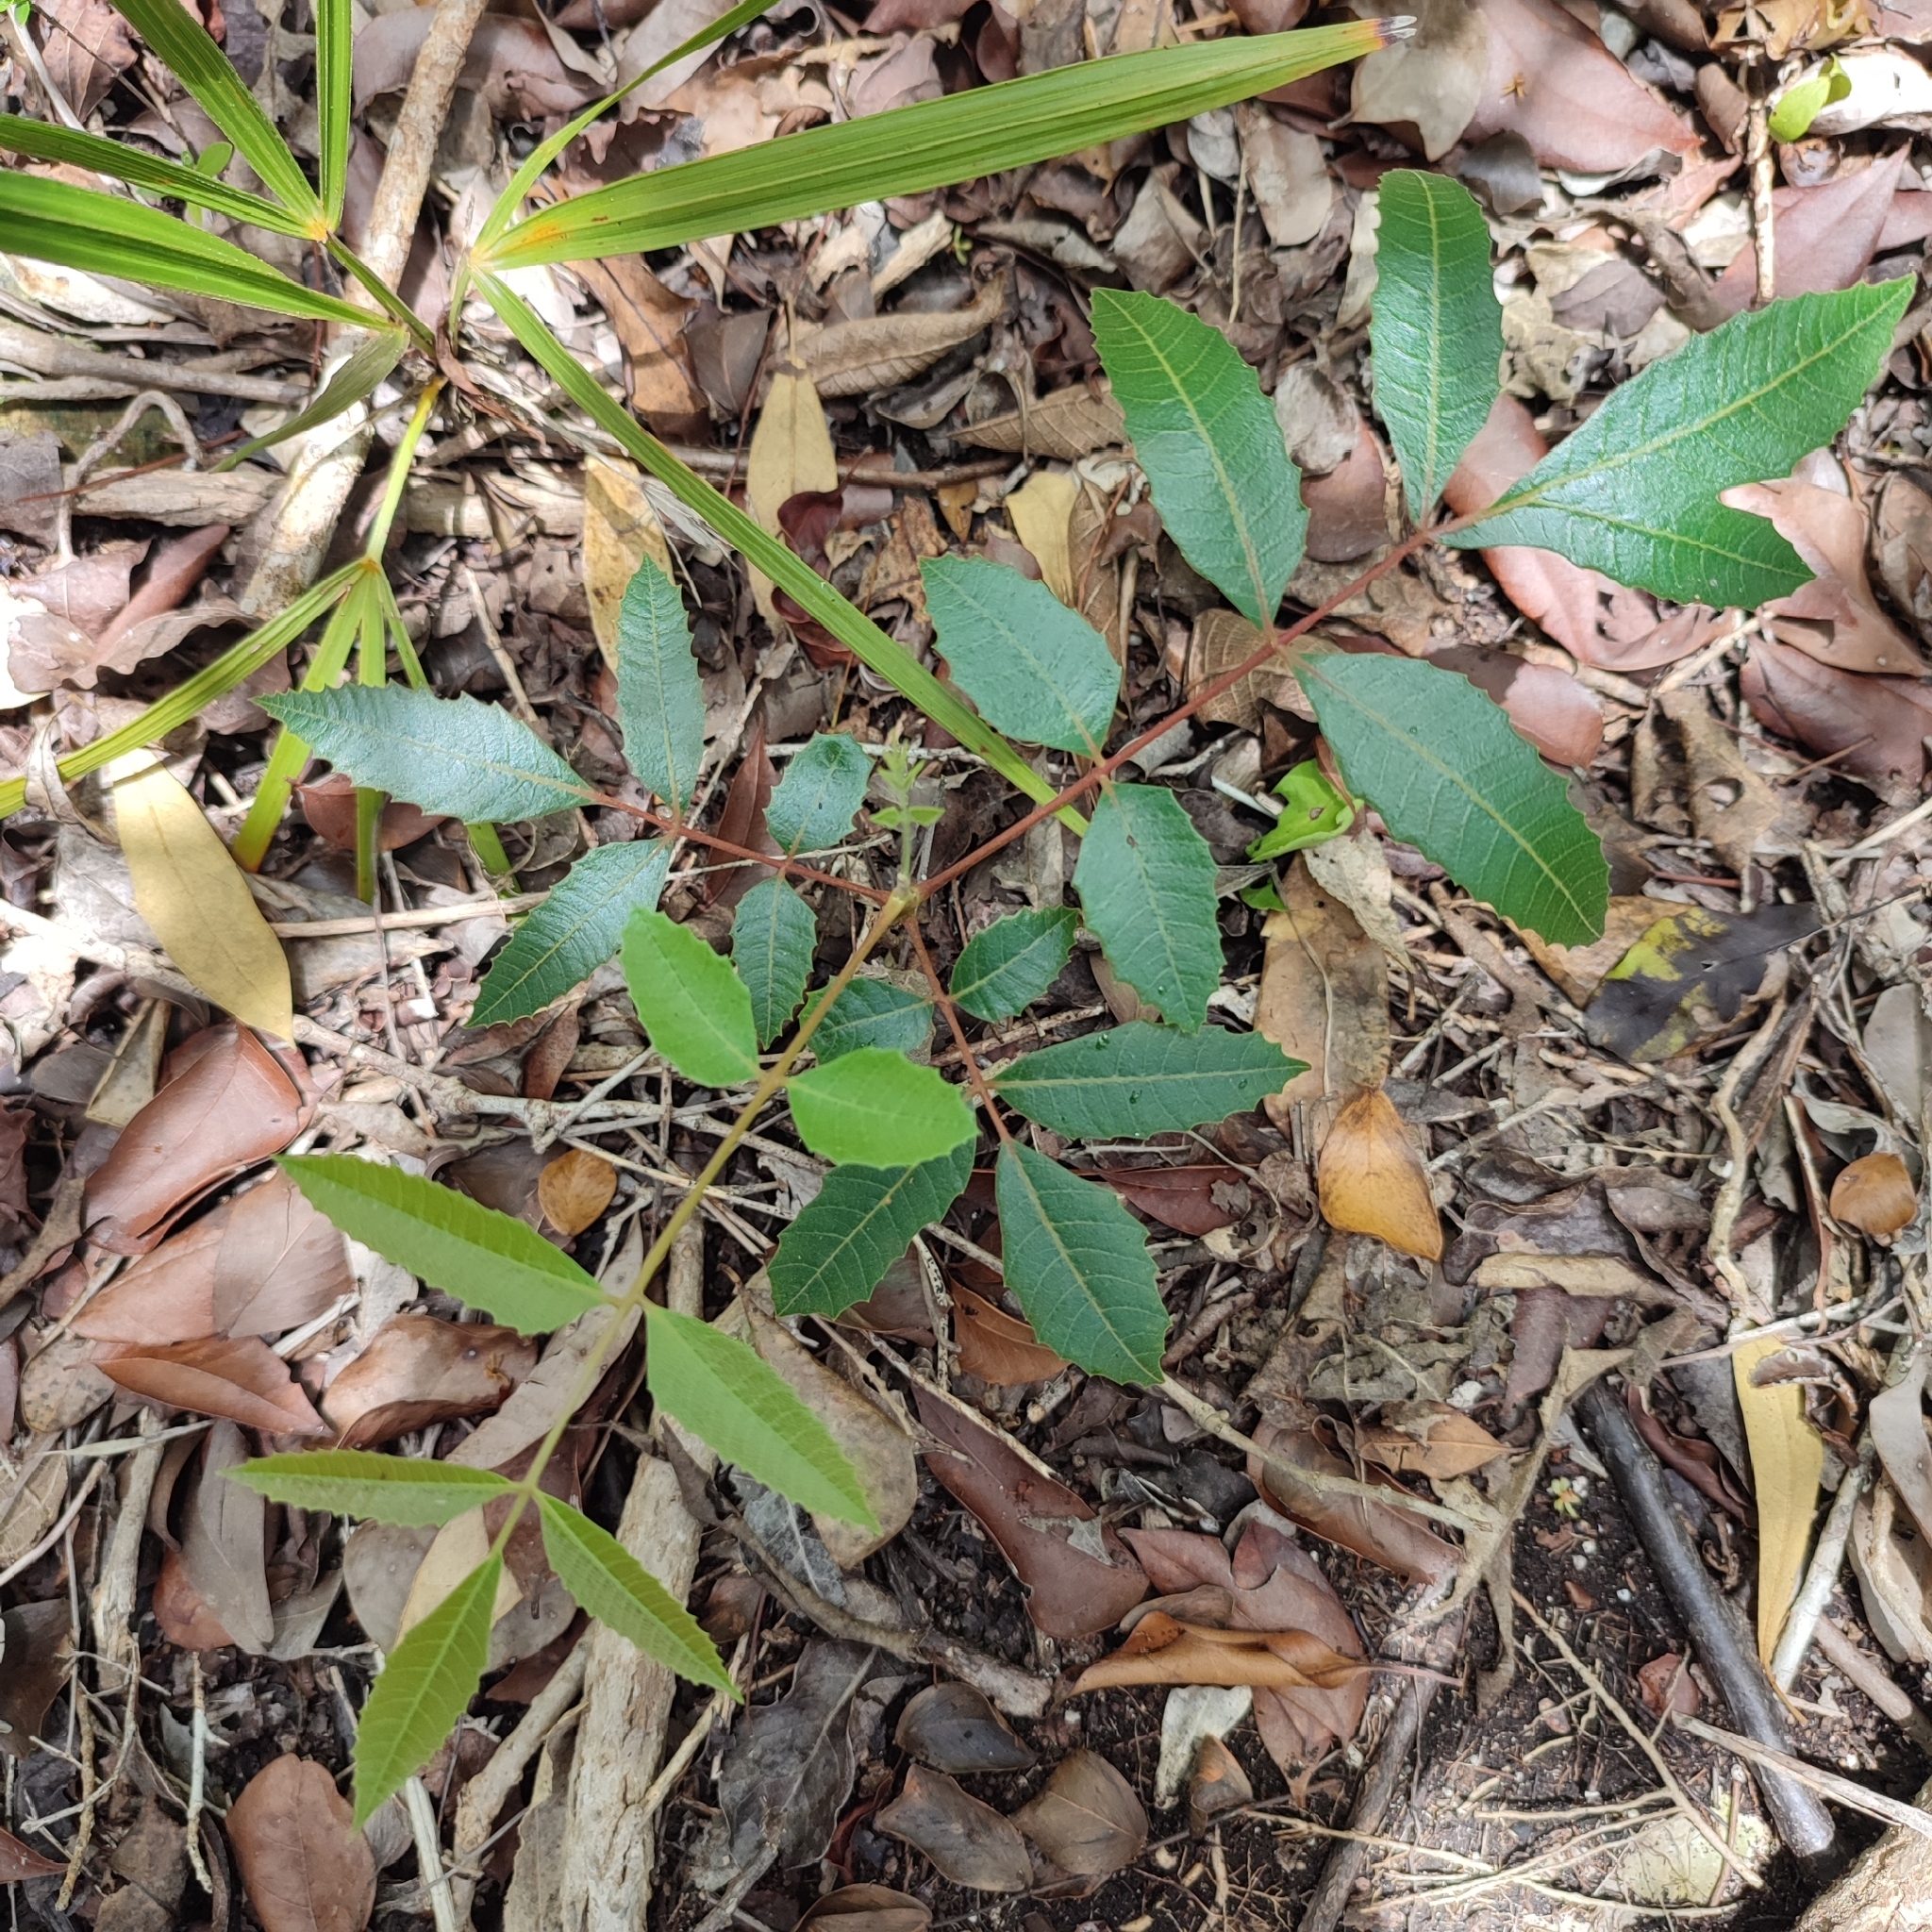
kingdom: Plantae
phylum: Tracheophyta
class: Magnoliopsida
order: Sapindales
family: Anacardiaceae
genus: Comocladia
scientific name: Comocladia dentata
